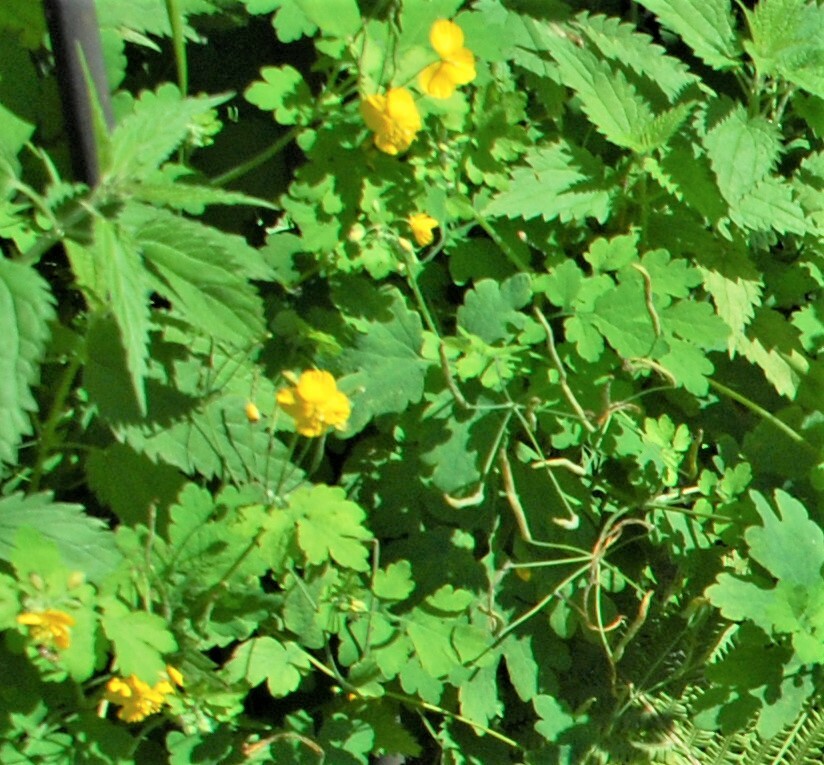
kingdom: Plantae
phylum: Tracheophyta
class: Magnoliopsida
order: Ranunculales
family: Papaveraceae
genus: Chelidonium
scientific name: Chelidonium majus
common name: Greater celandine
